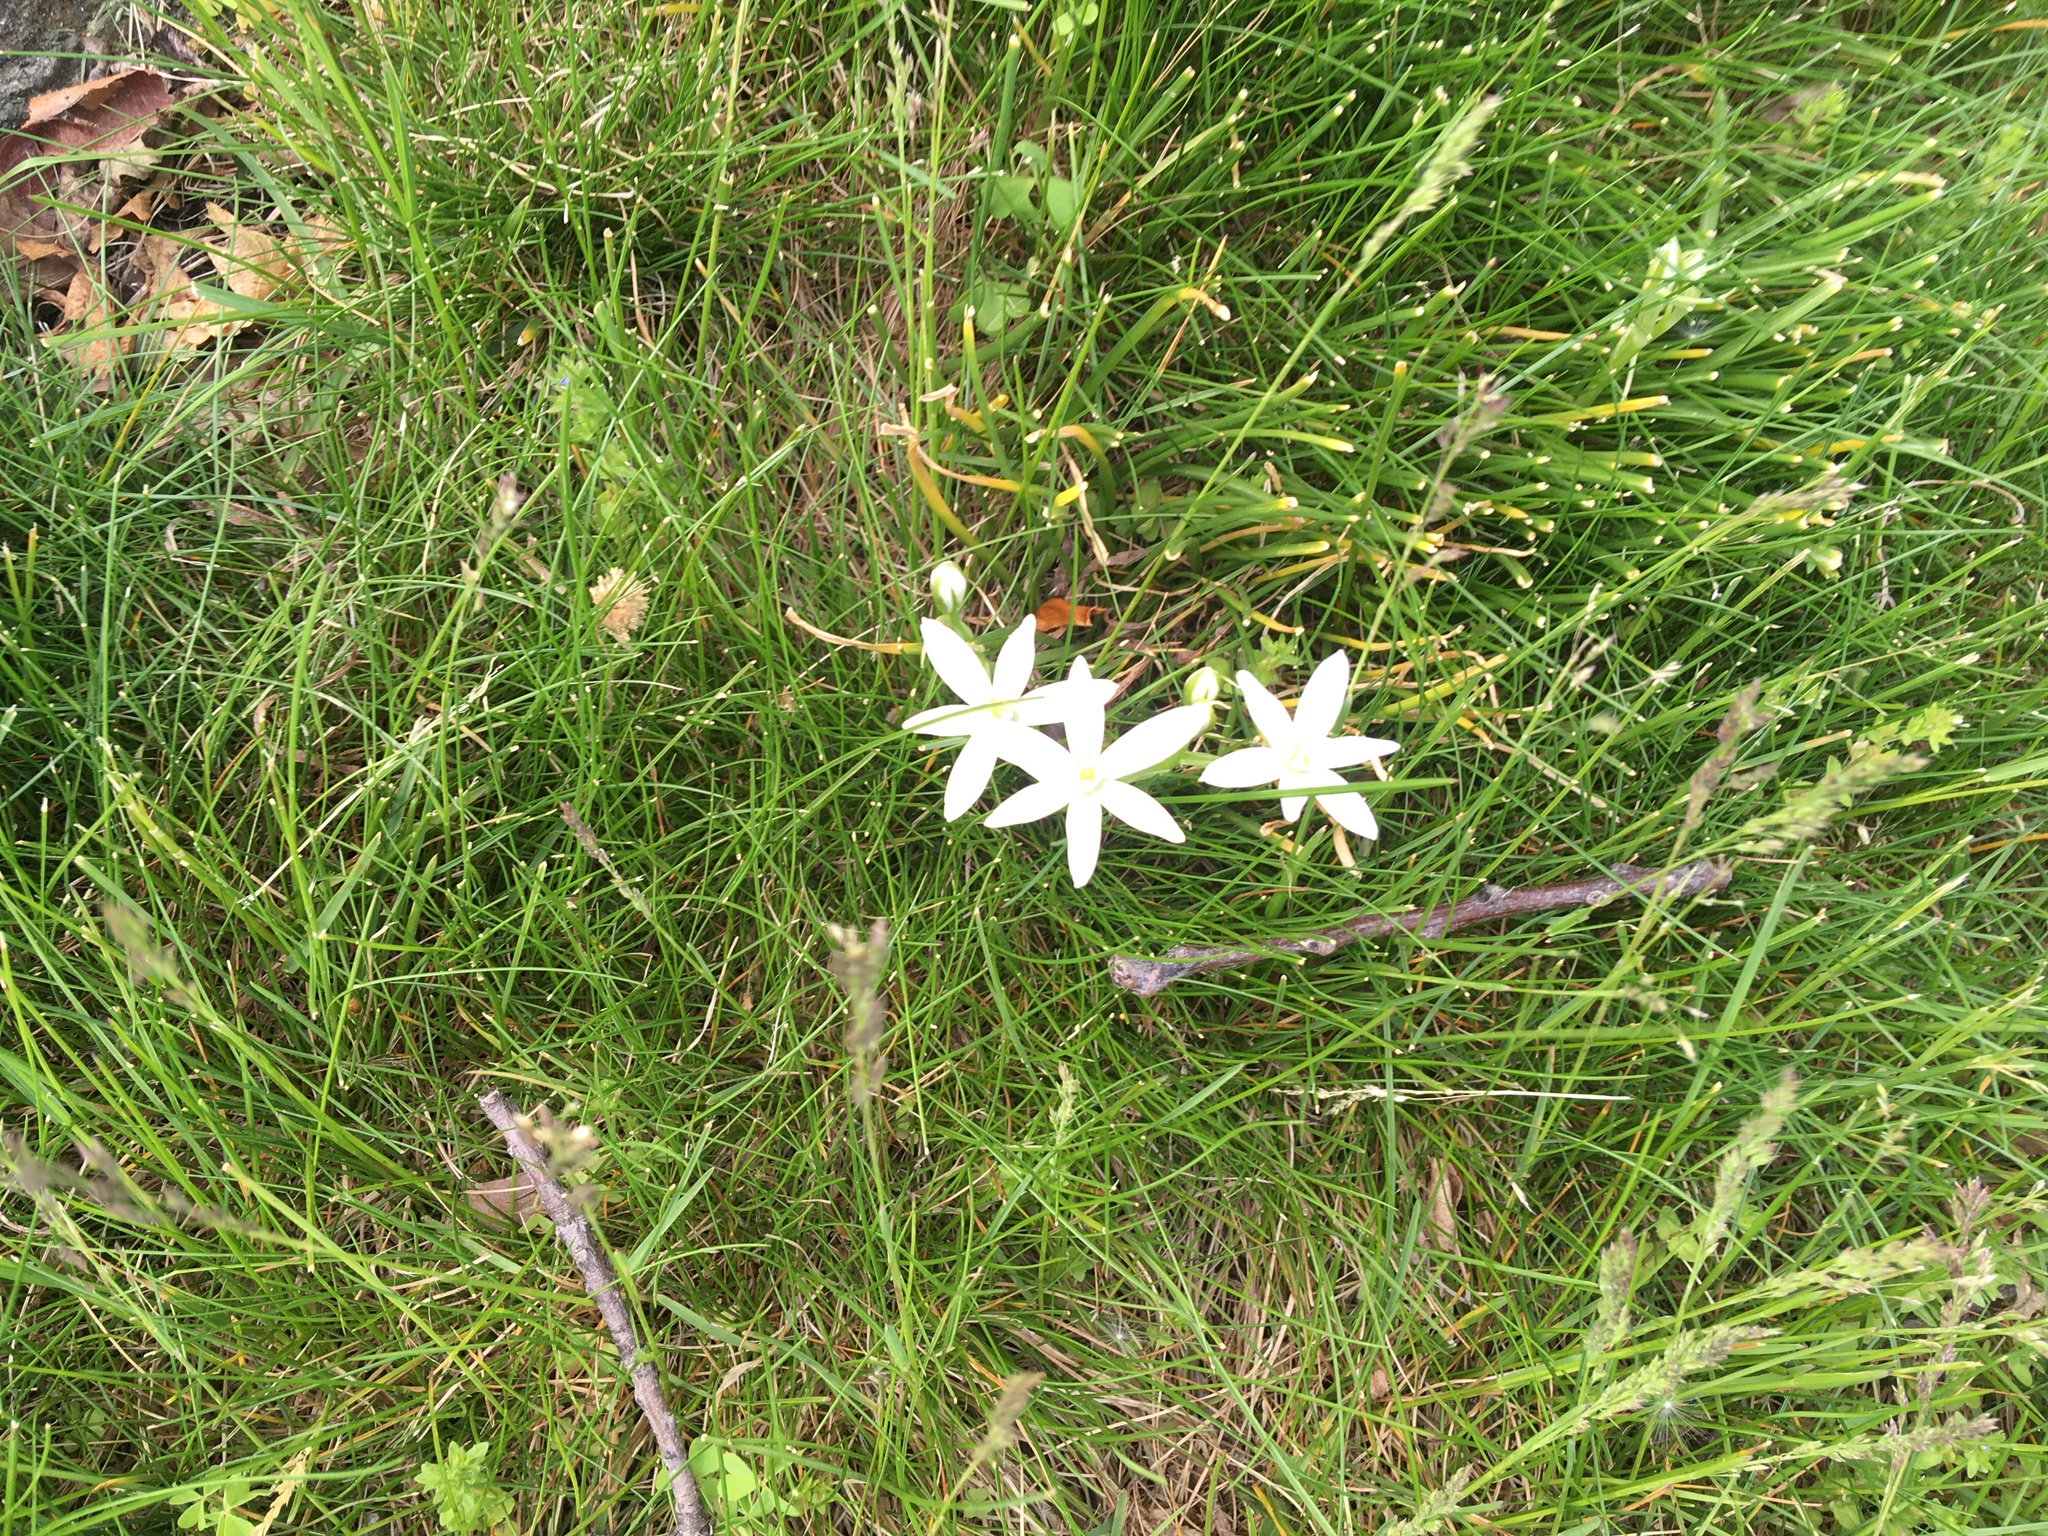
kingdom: Plantae
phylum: Tracheophyta
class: Liliopsida
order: Asparagales
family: Asparagaceae
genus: Ornithogalum
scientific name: Ornithogalum umbellatum
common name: Garden star-of-bethlehem
